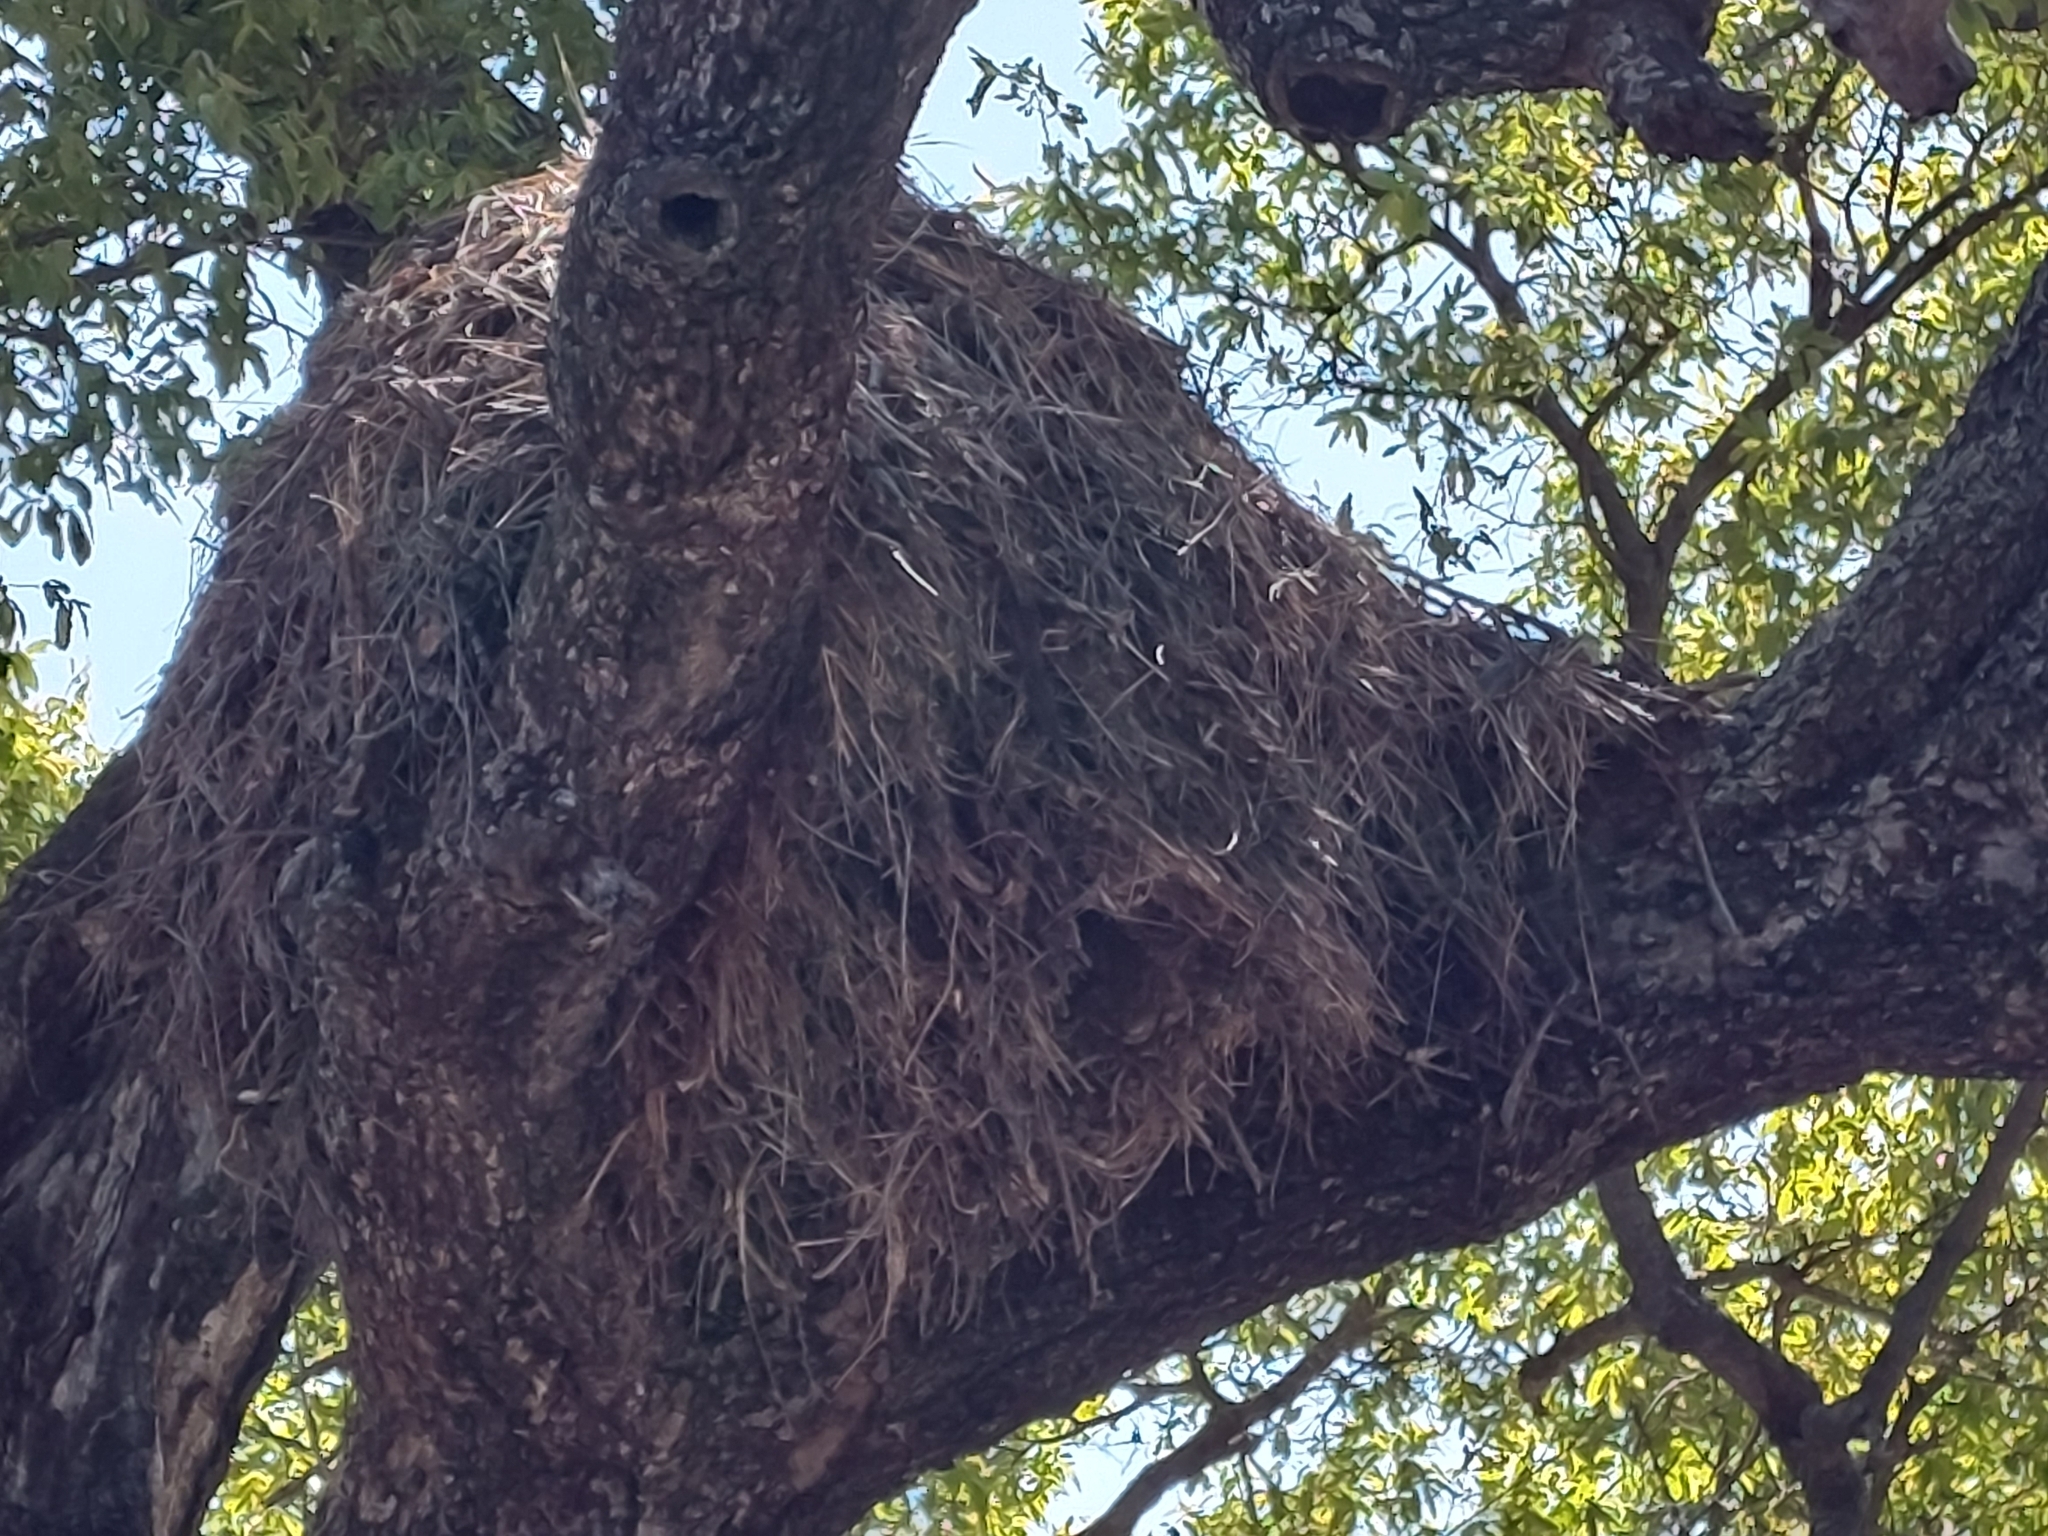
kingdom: Animalia
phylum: Chordata
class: Aves
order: Pelecaniformes
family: Scopidae
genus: Scopus
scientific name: Scopus umbretta
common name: Hamerkop
